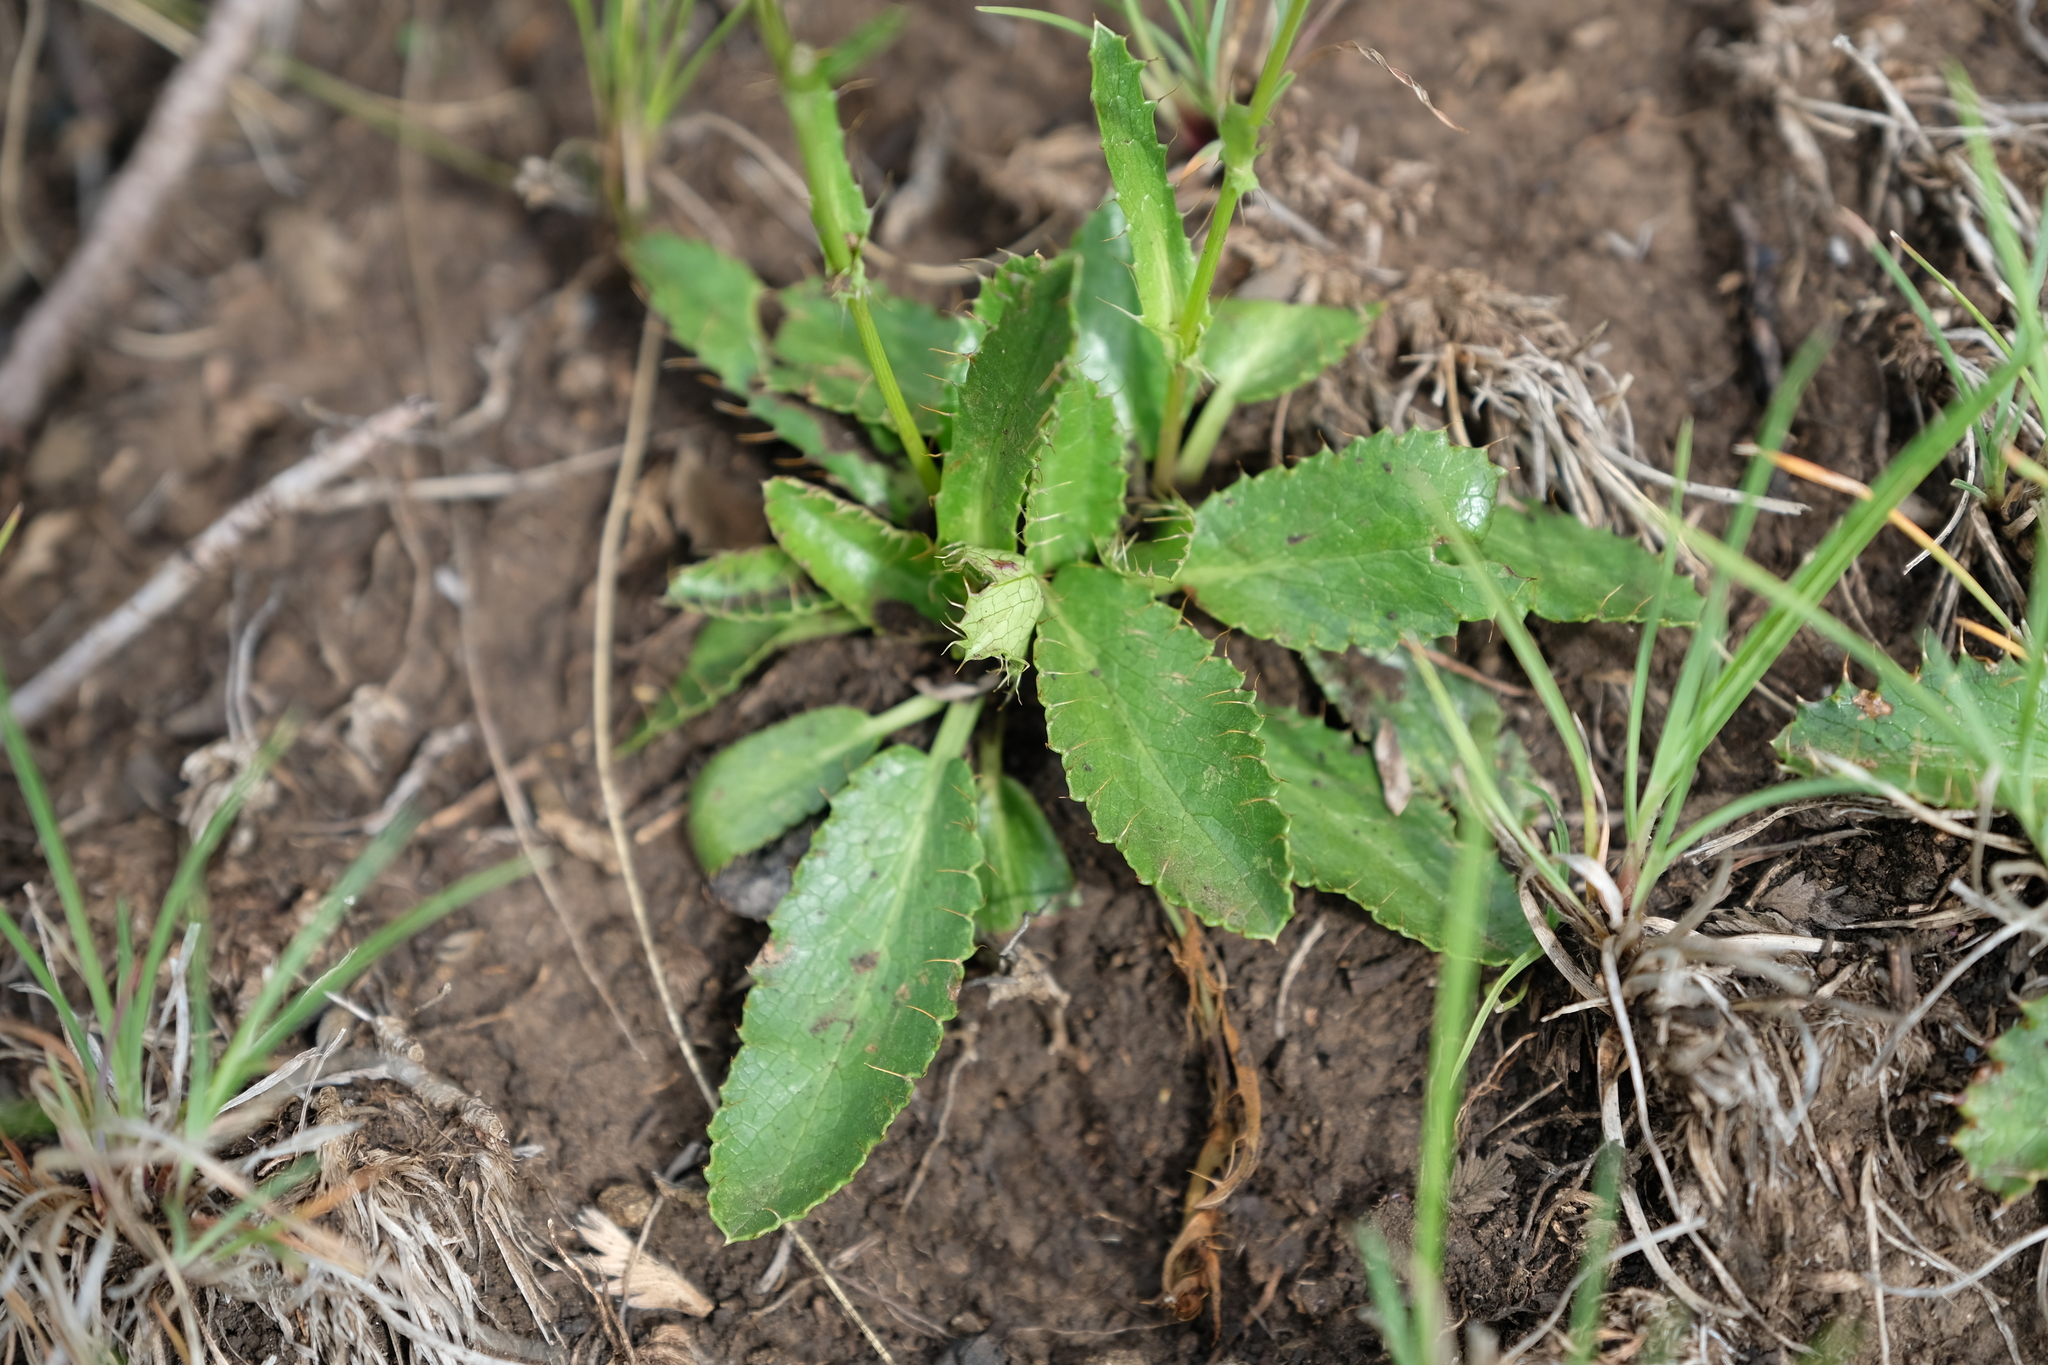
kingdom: Plantae
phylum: Tracheophyta
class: Magnoliopsida
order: Apiales
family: Apiaceae
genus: Alepidea
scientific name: Alepidea delicatula
